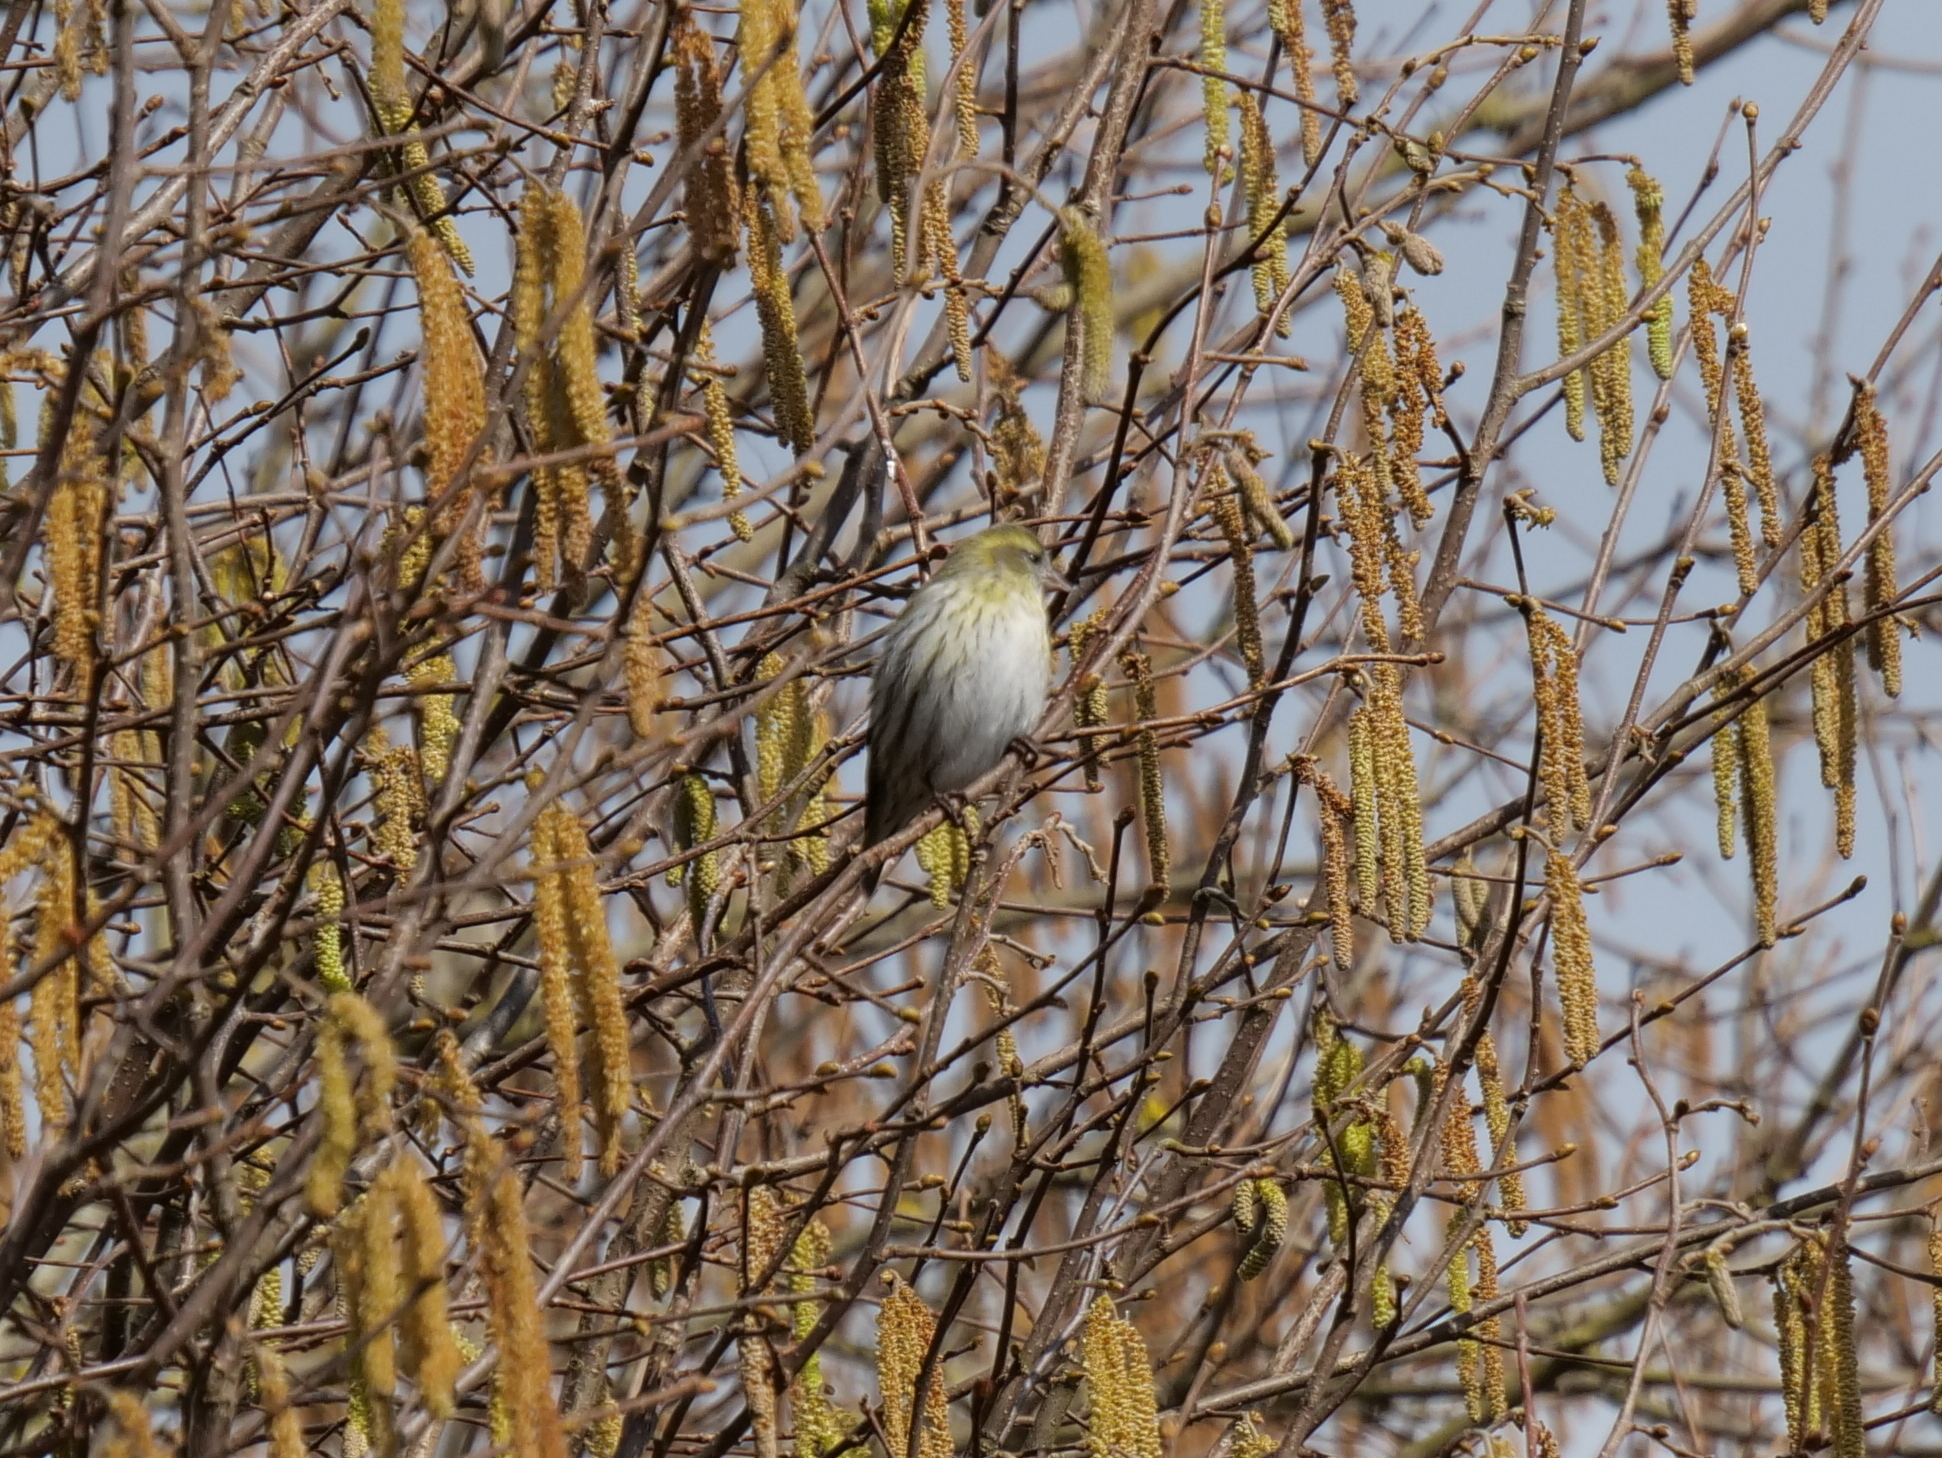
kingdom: Animalia
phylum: Chordata
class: Aves
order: Passeriformes
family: Fringillidae
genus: Spinus
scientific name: Spinus spinus
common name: Eurasian siskin
